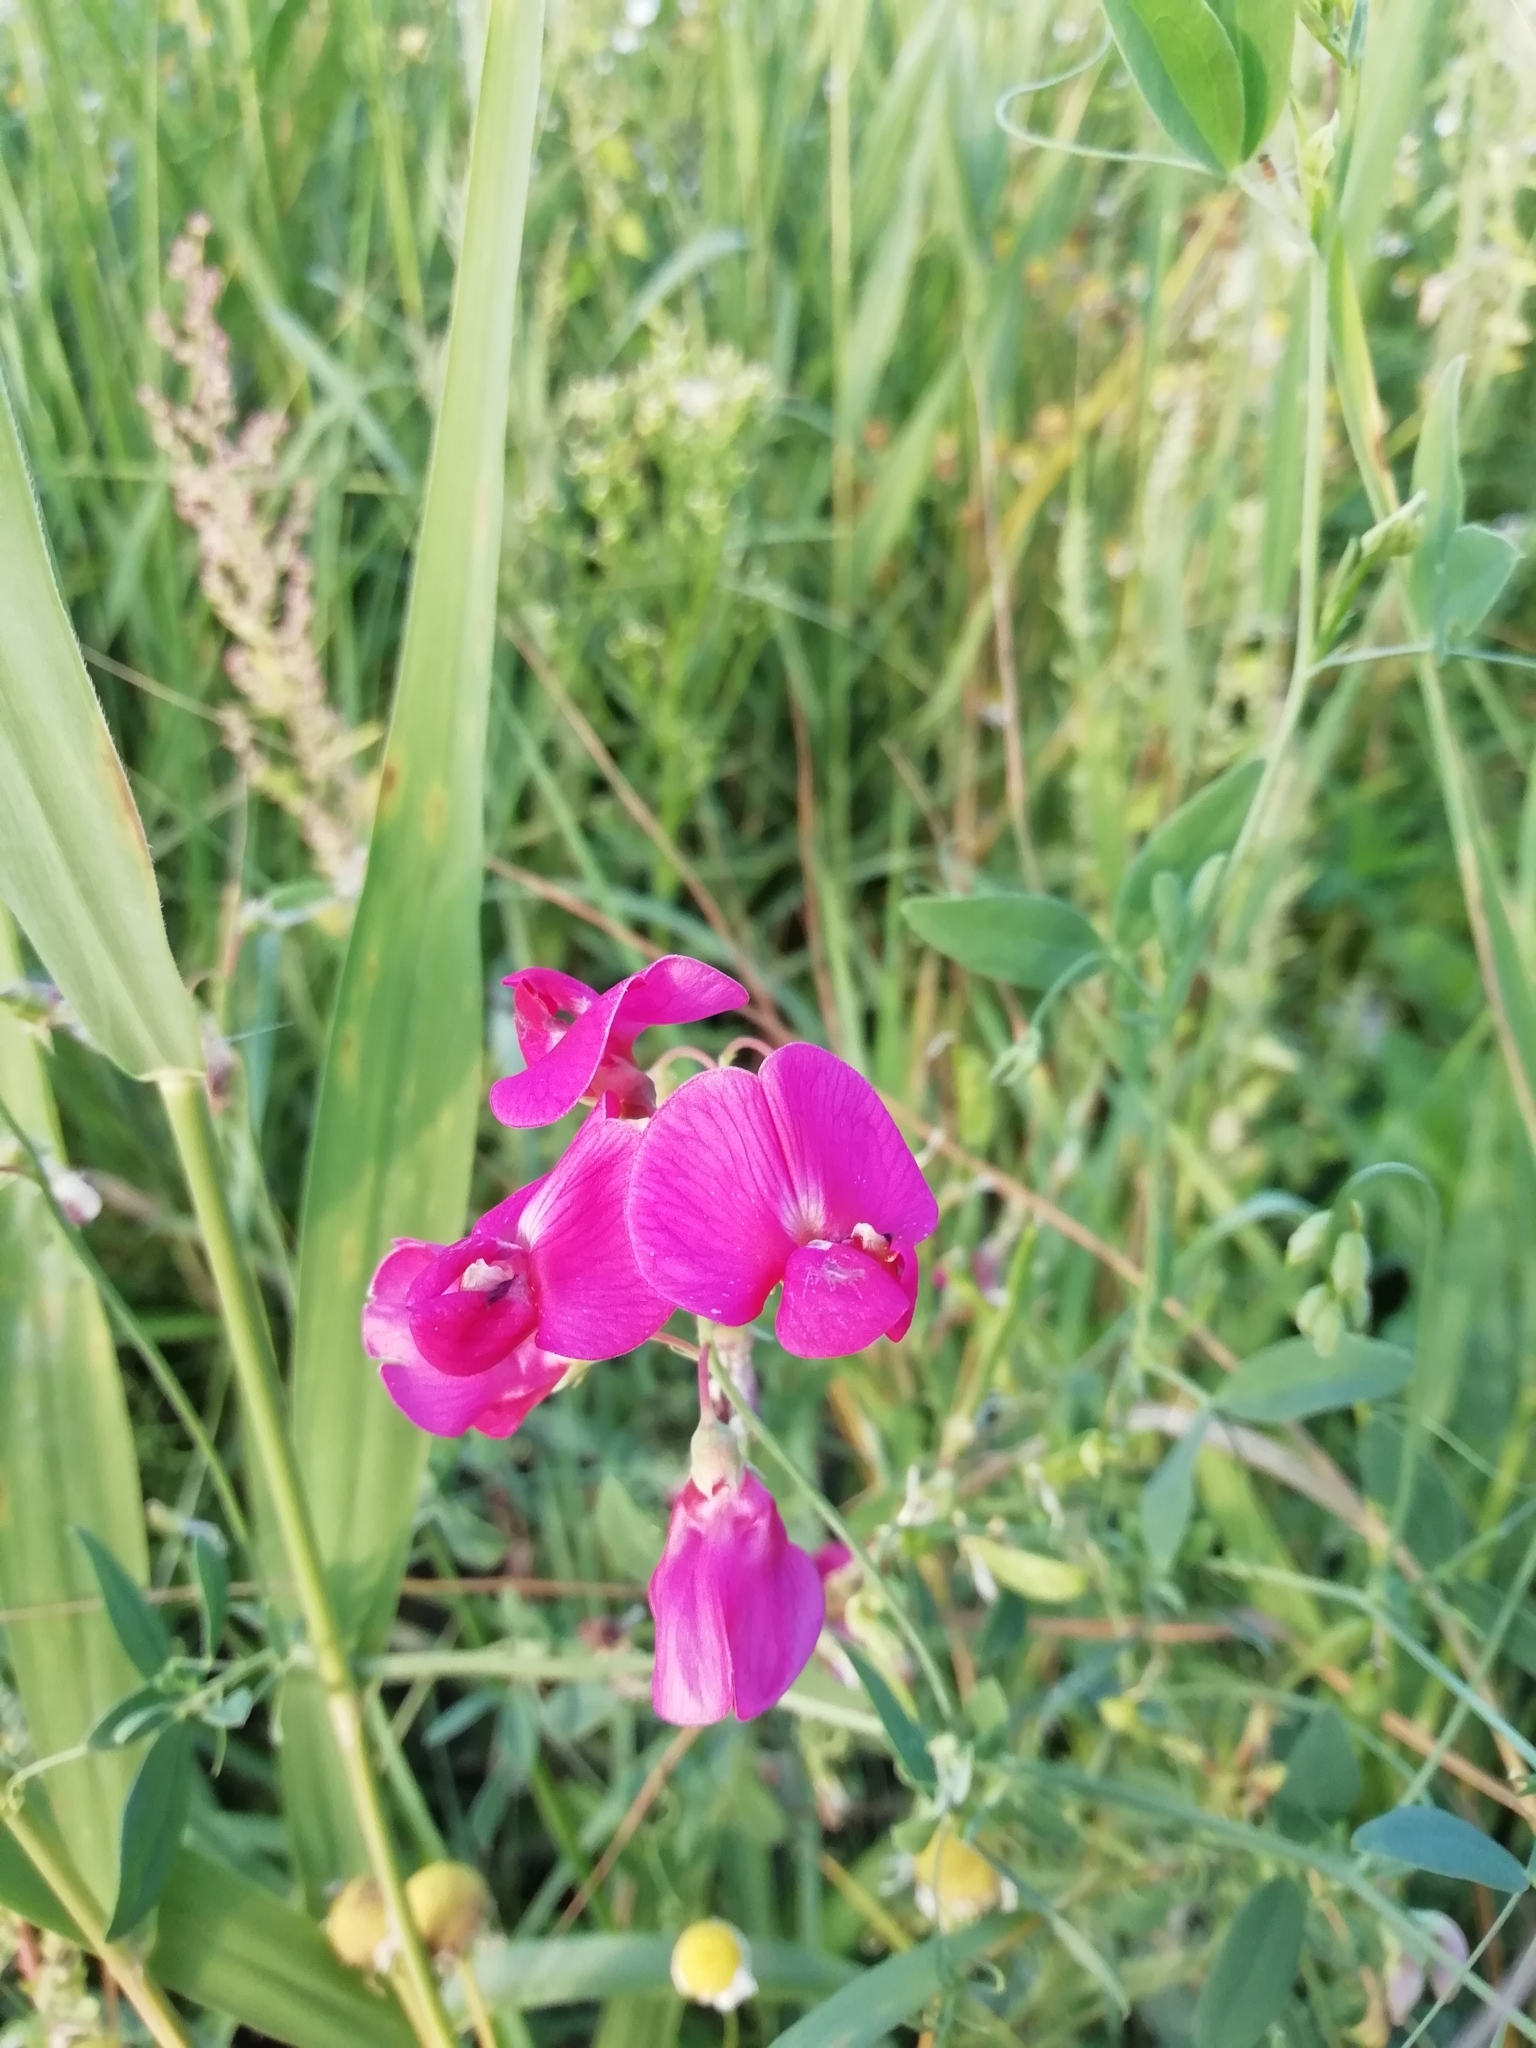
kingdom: Plantae
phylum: Tracheophyta
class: Magnoliopsida
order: Fabales
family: Fabaceae
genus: Lathyrus
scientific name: Lathyrus tuberosus
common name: Tuberous pea
